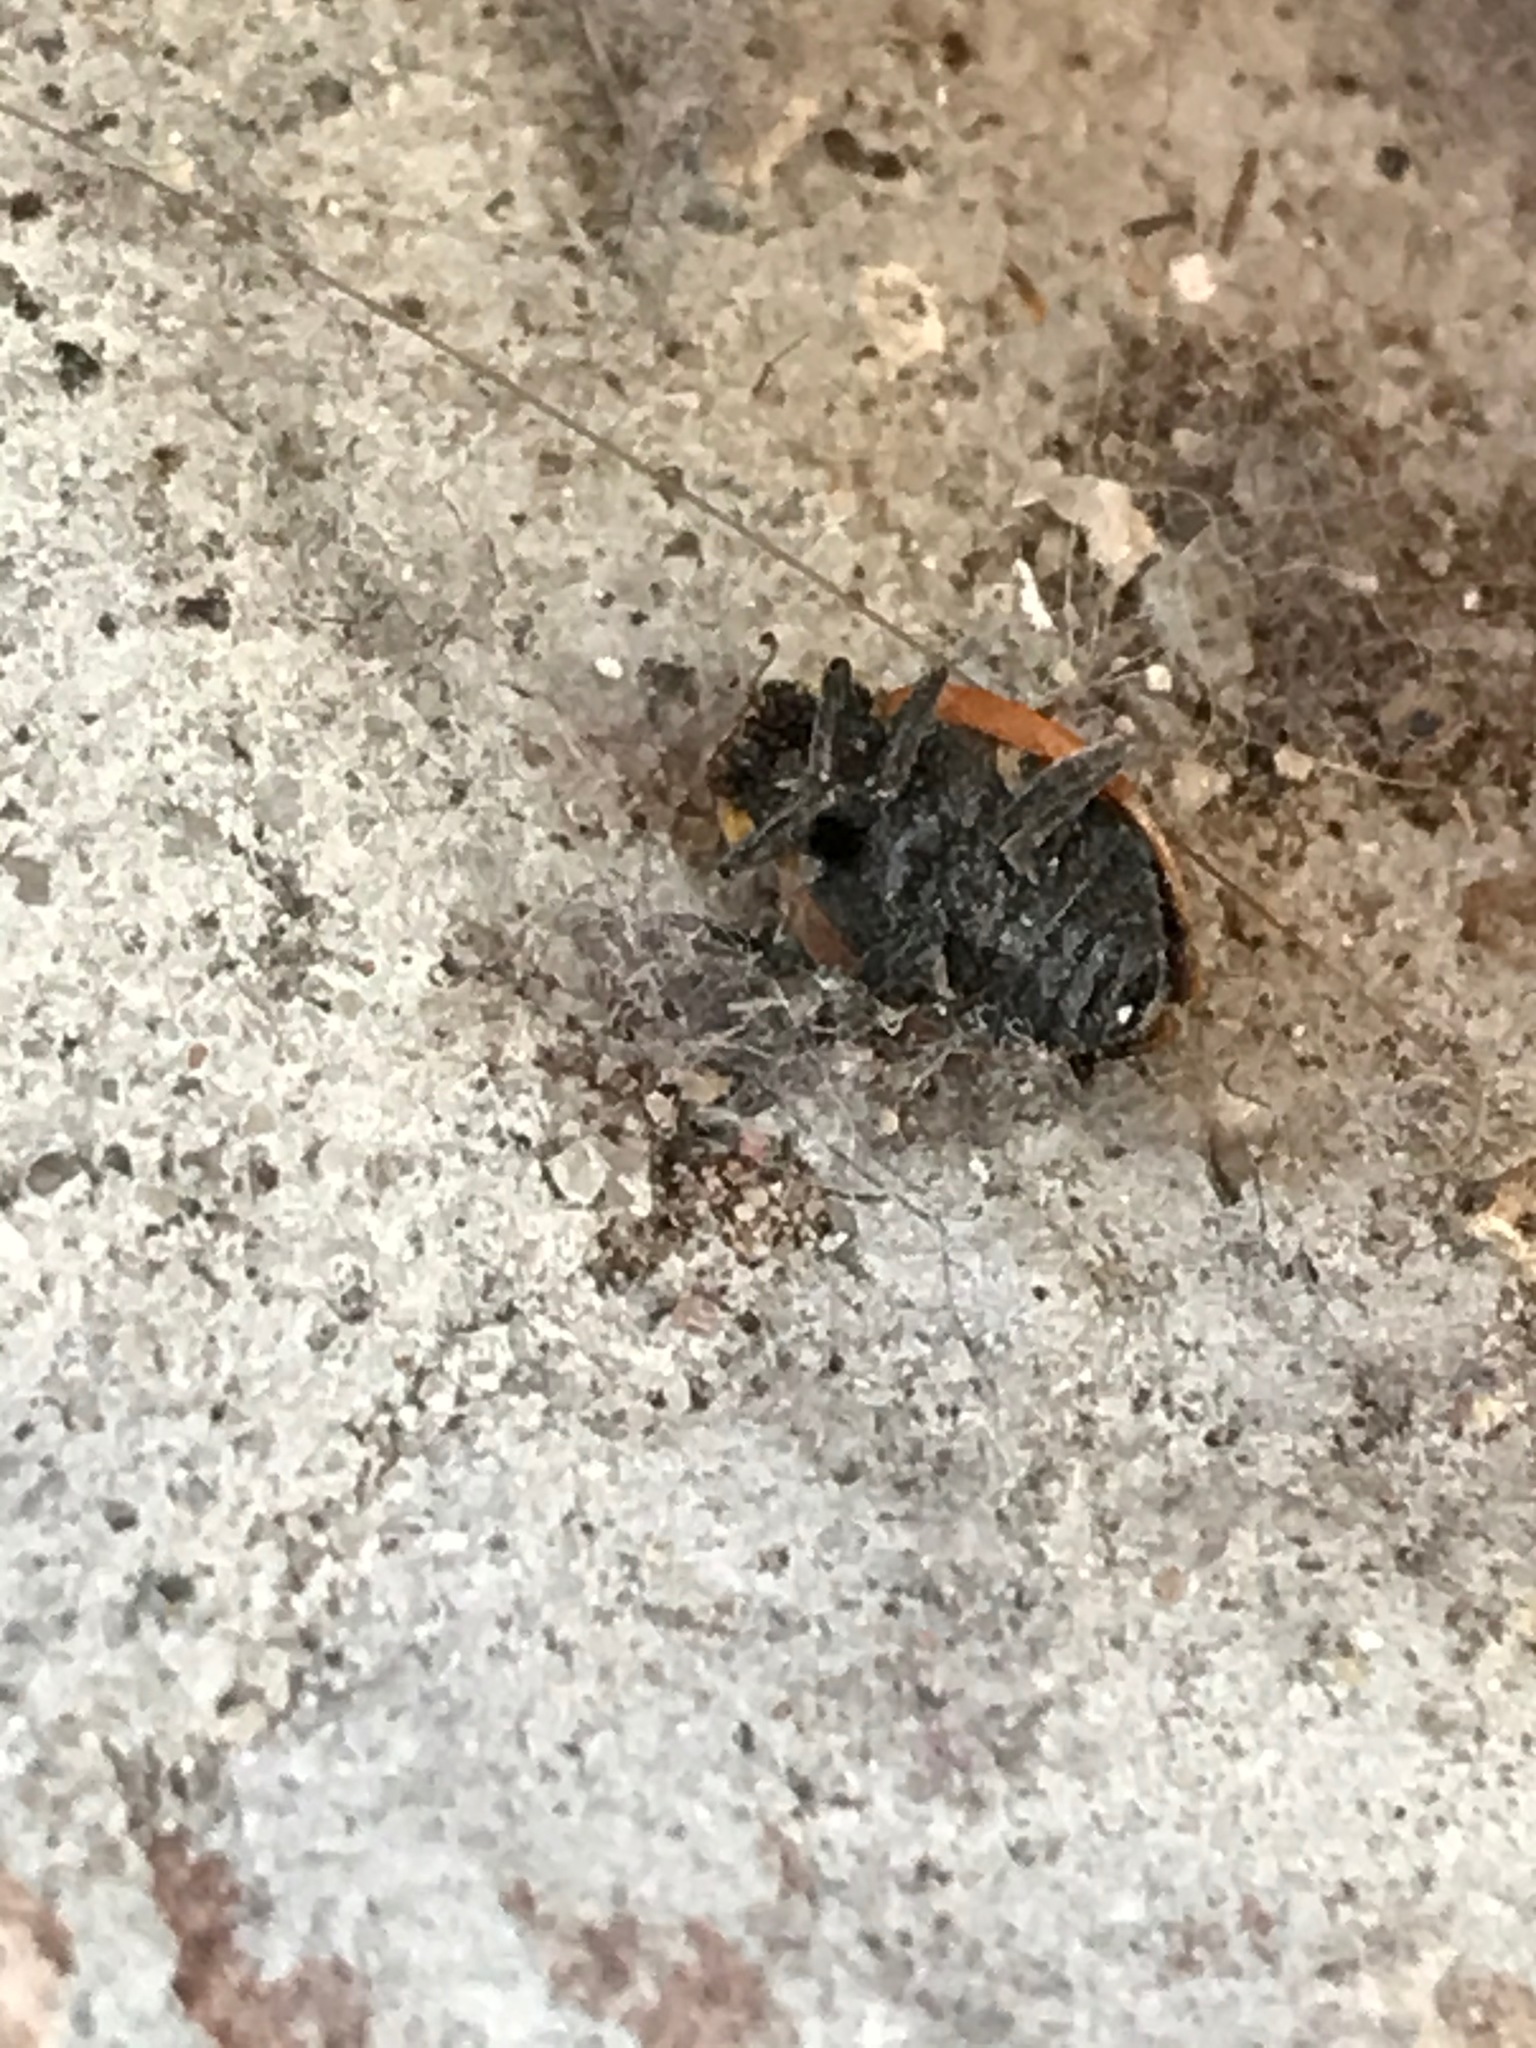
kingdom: Animalia
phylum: Arthropoda
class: Insecta
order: Coleoptera
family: Coccinellidae
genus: Hippodamia
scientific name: Hippodamia convergens
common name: Convergent lady beetle
